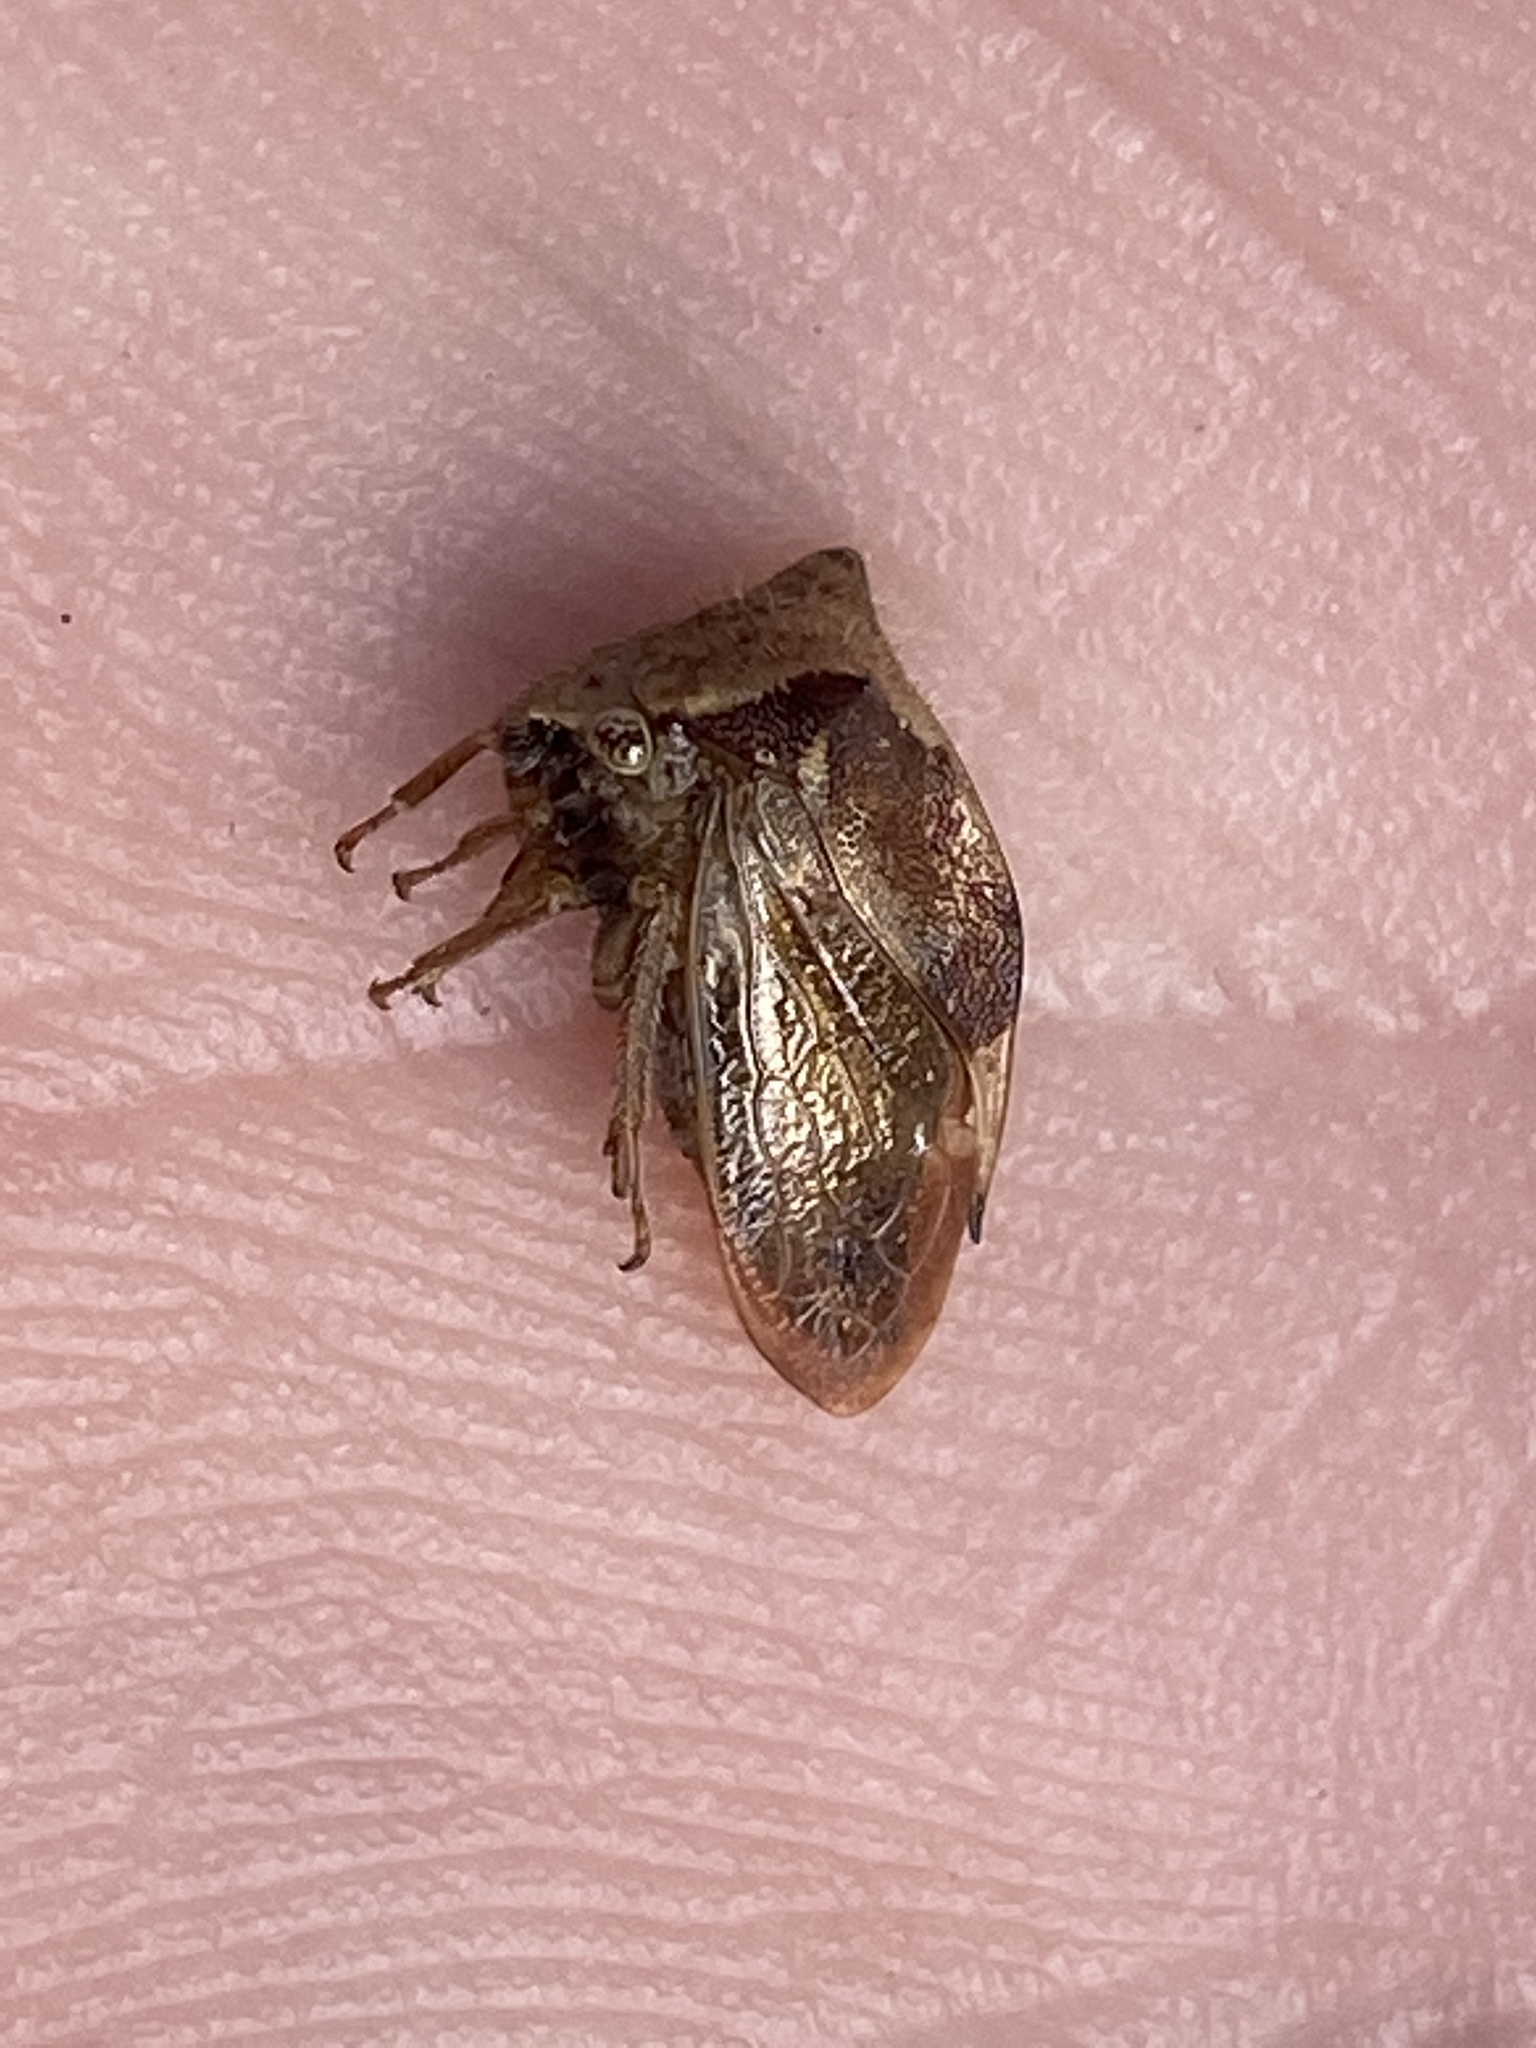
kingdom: Animalia
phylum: Arthropoda
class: Insecta
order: Hemiptera
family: Membracidae
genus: Stictocephala
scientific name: Stictocephala diceros
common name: Two-horned treehopper
